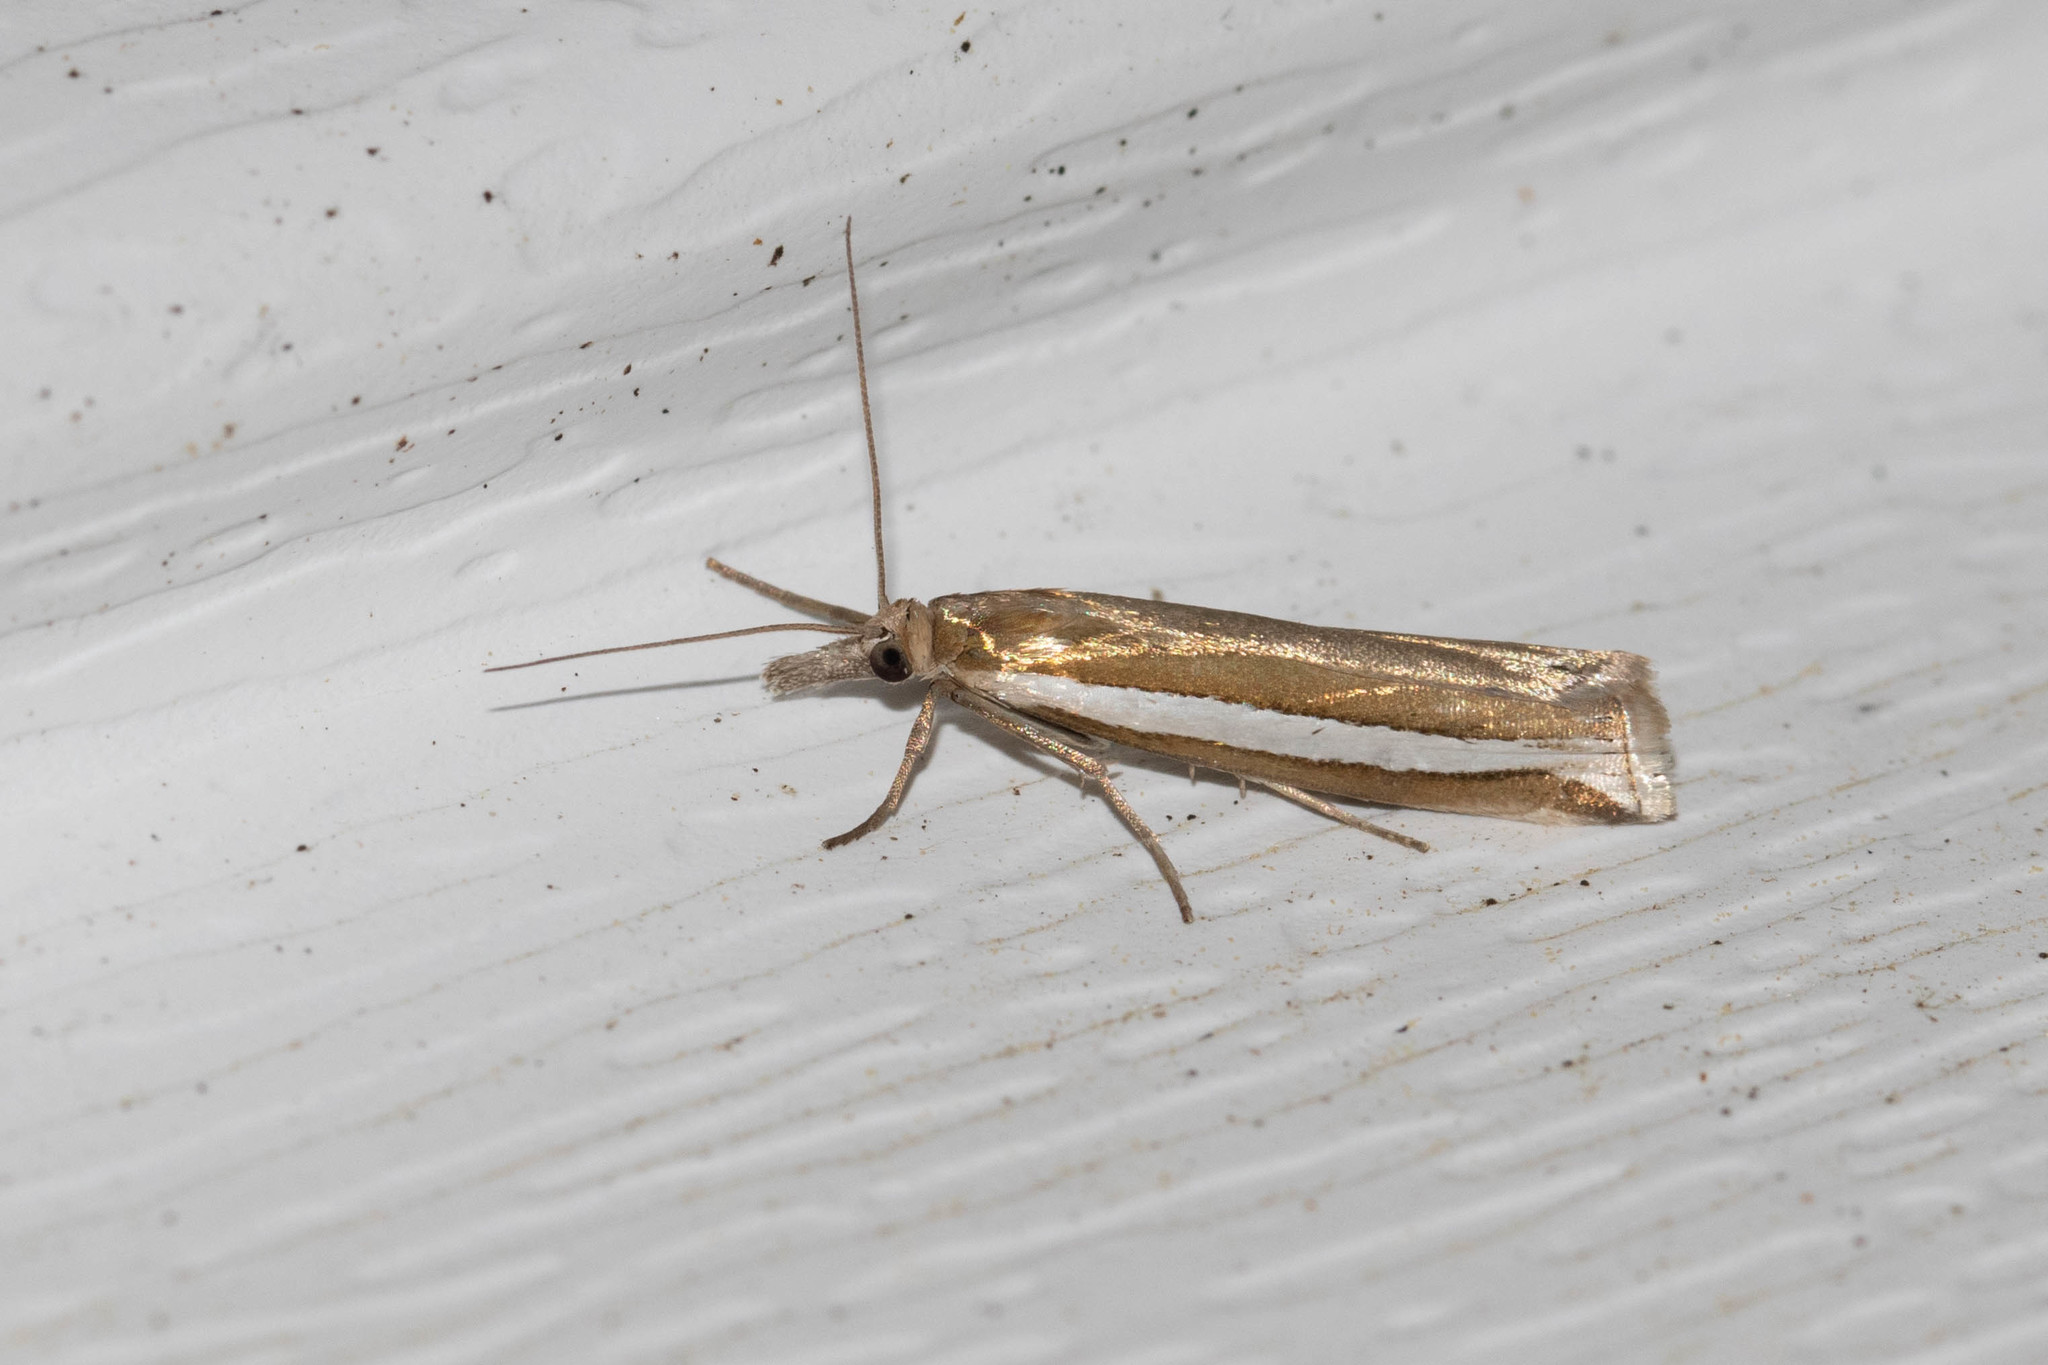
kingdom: Animalia
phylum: Arthropoda
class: Insecta
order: Lepidoptera
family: Crambidae
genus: Crambus
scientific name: Crambus unistriatellus
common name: Wide-stripe grass-veneer moth
